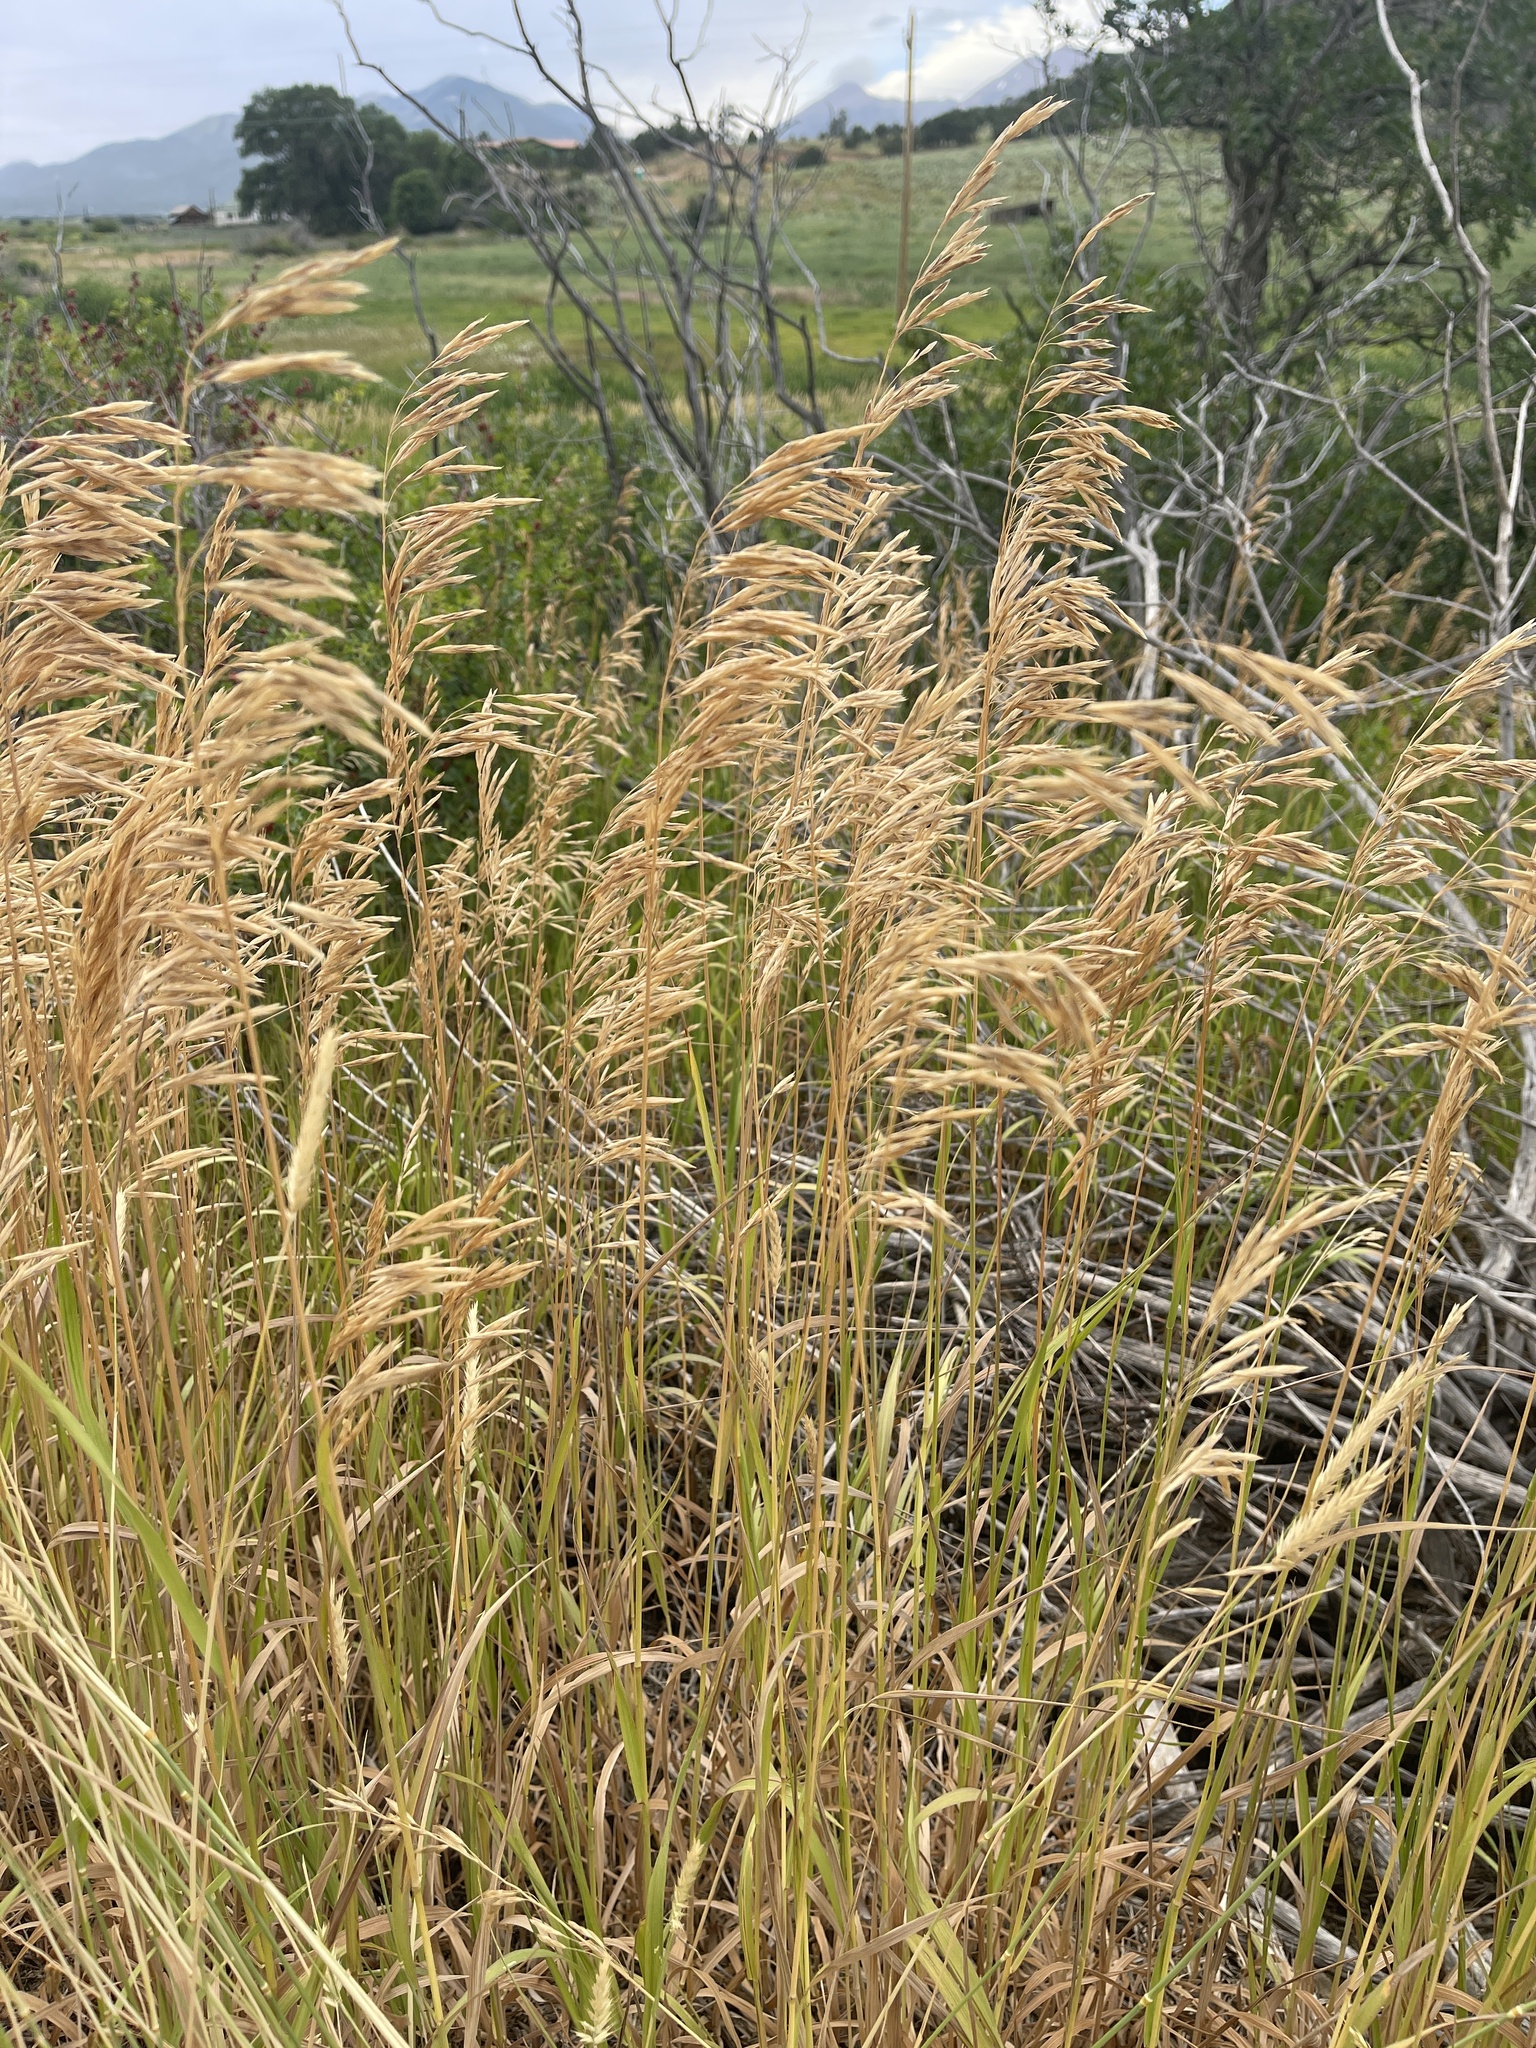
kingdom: Plantae
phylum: Tracheophyta
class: Liliopsida
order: Poales
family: Poaceae
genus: Bromus
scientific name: Bromus inermis
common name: Smooth brome
